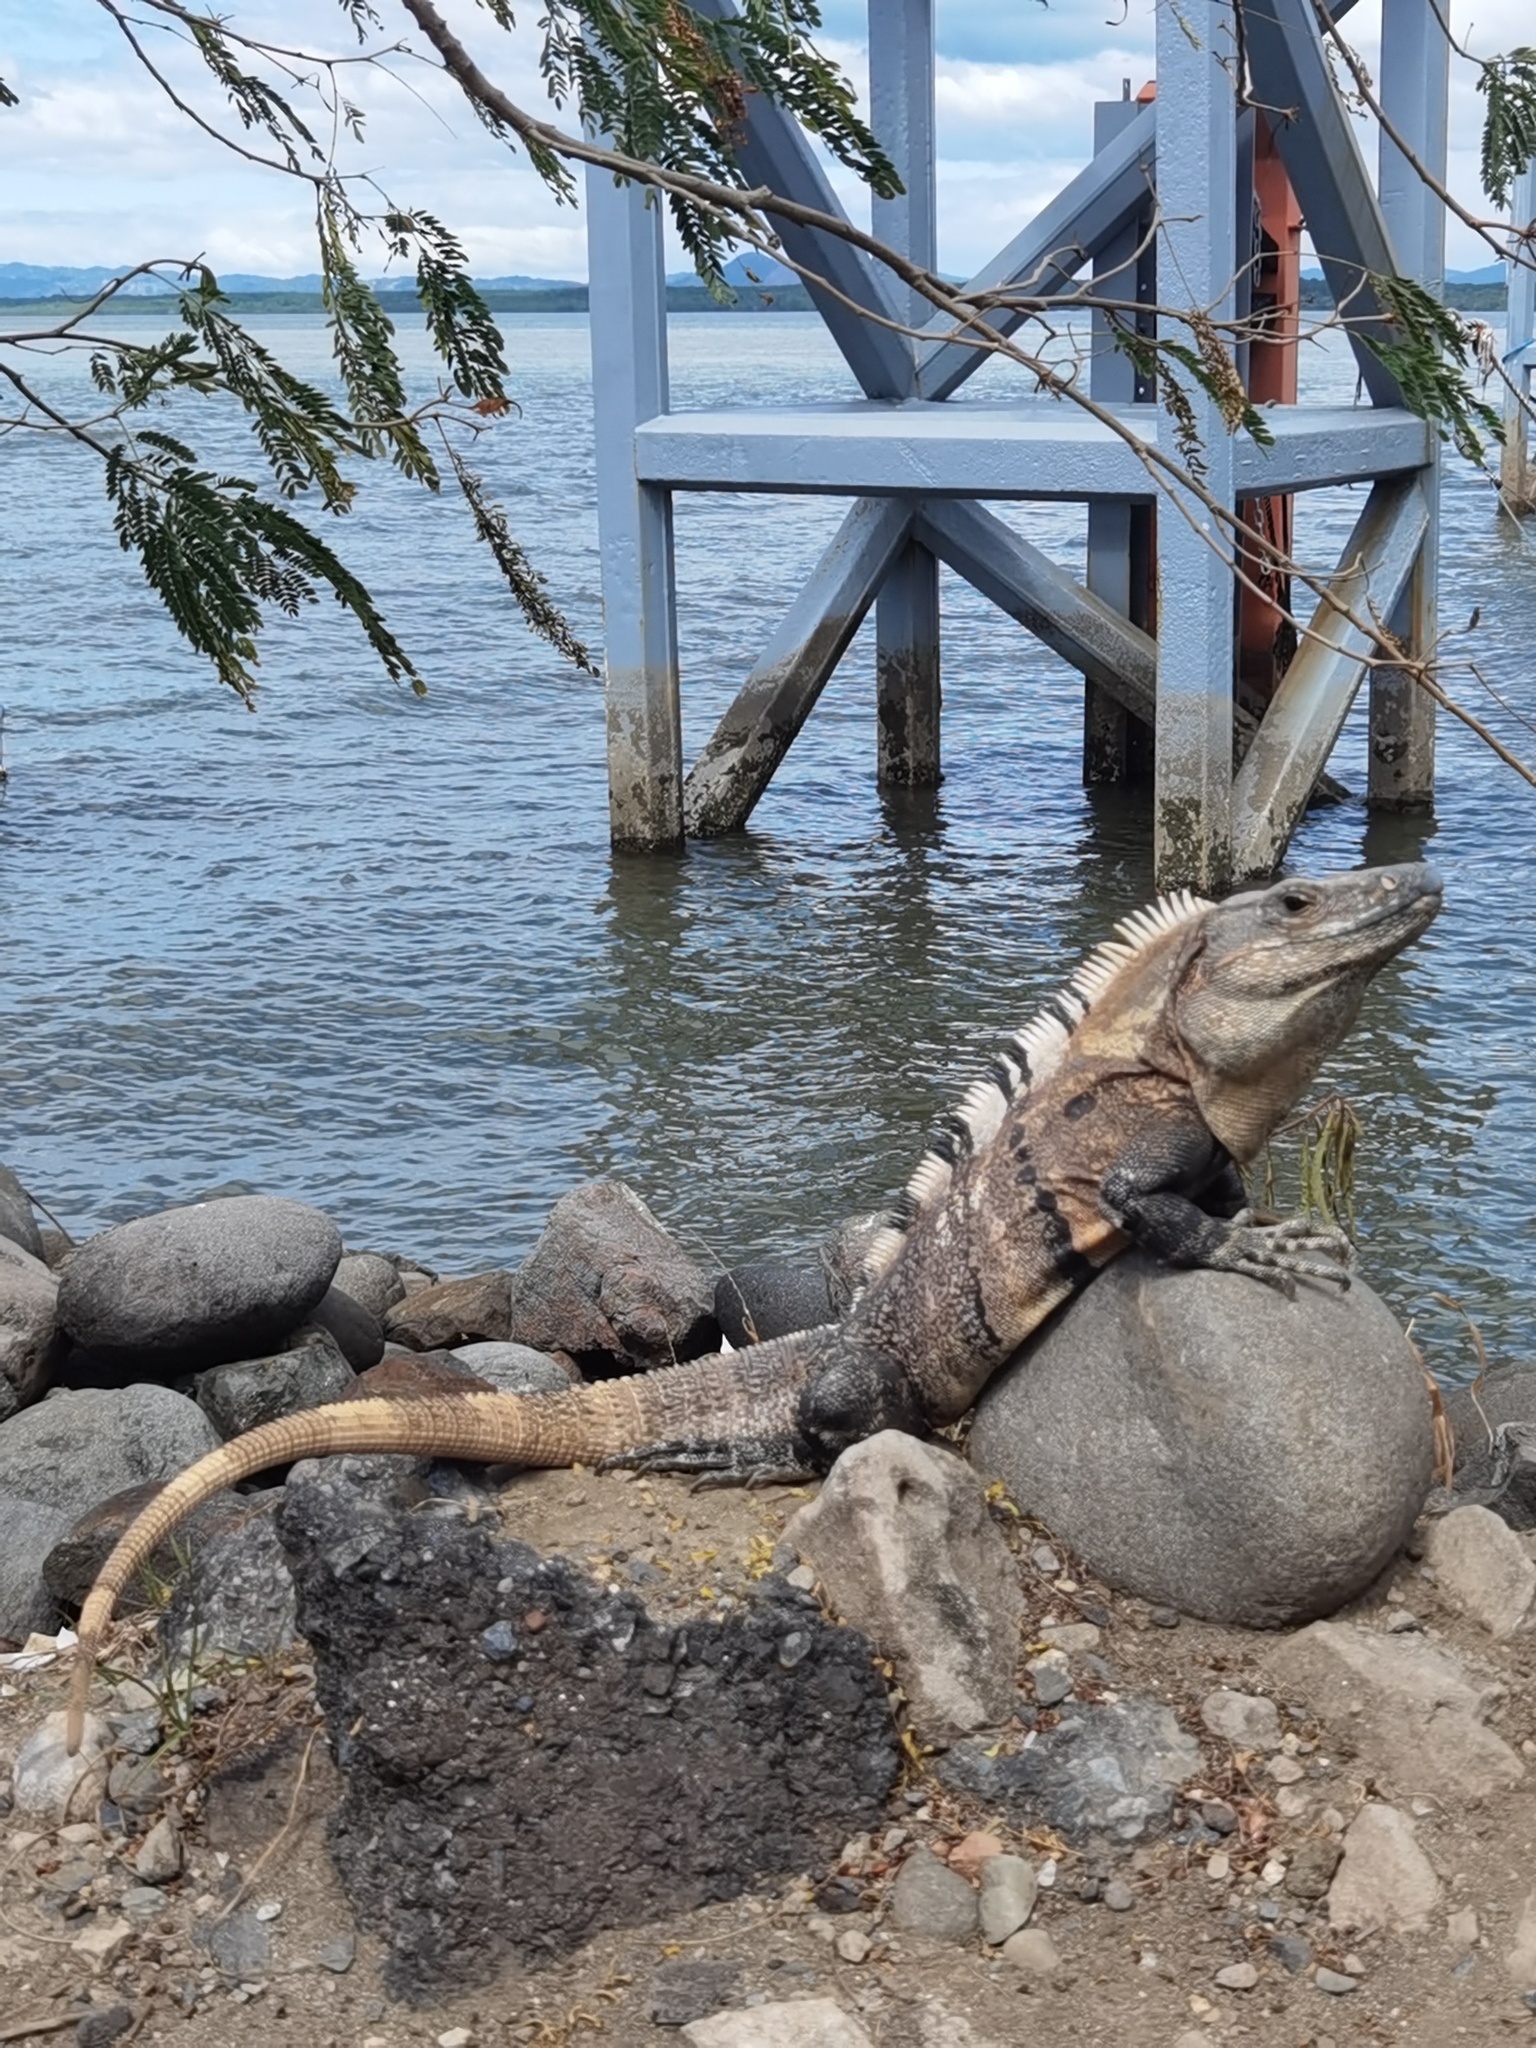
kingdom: Animalia
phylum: Chordata
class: Squamata
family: Iguanidae
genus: Ctenosaura
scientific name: Ctenosaura similis
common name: Black spiny-tailed iguana
